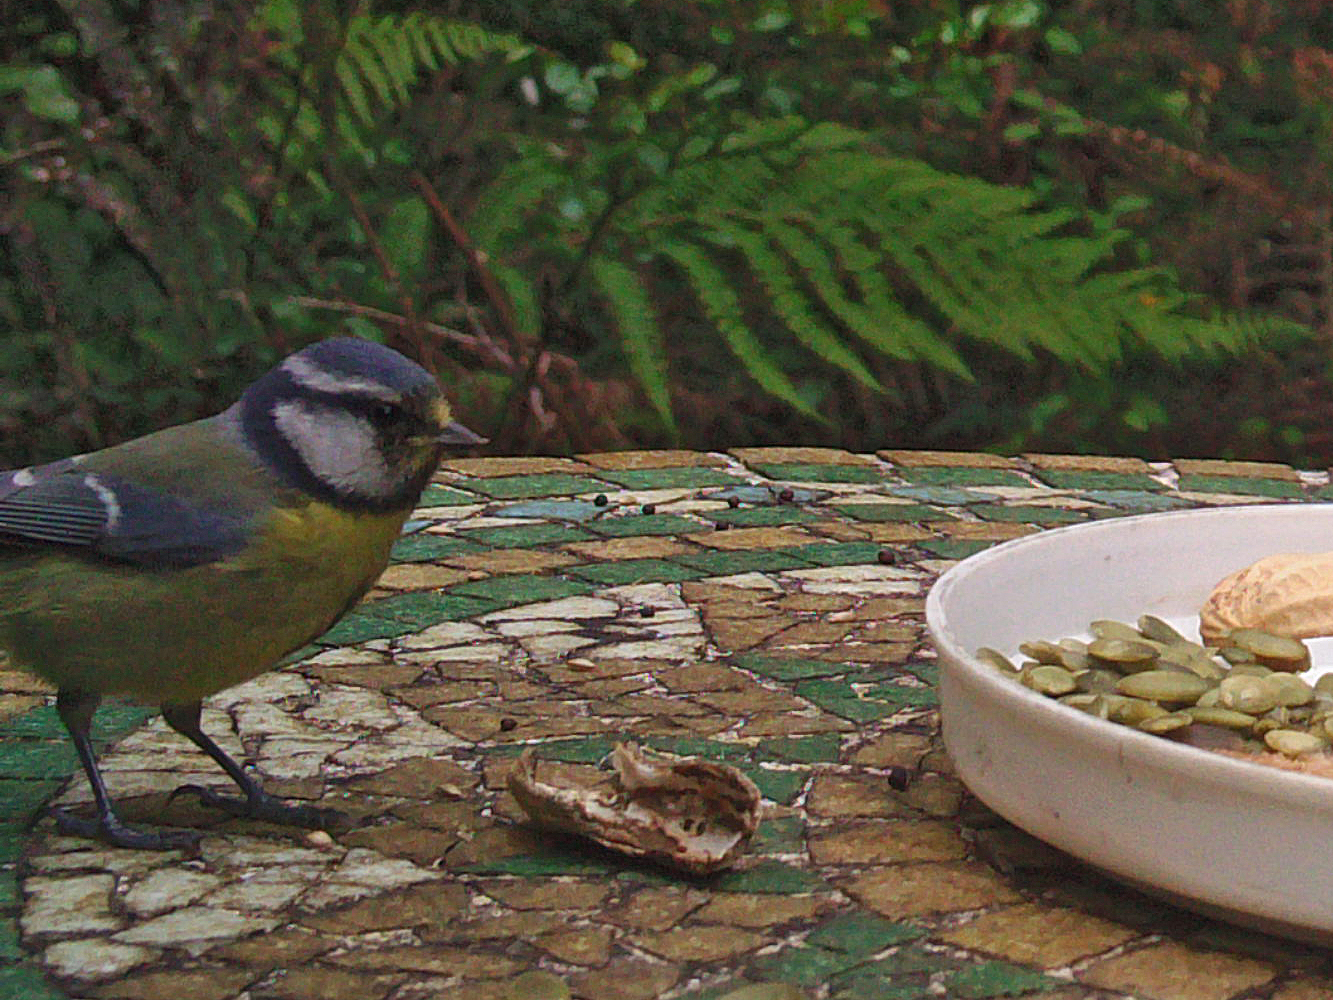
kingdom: Animalia
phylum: Chordata
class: Aves
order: Passeriformes
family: Paridae
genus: Cyanistes
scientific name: Cyanistes caeruleus
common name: Eurasian blue tit
